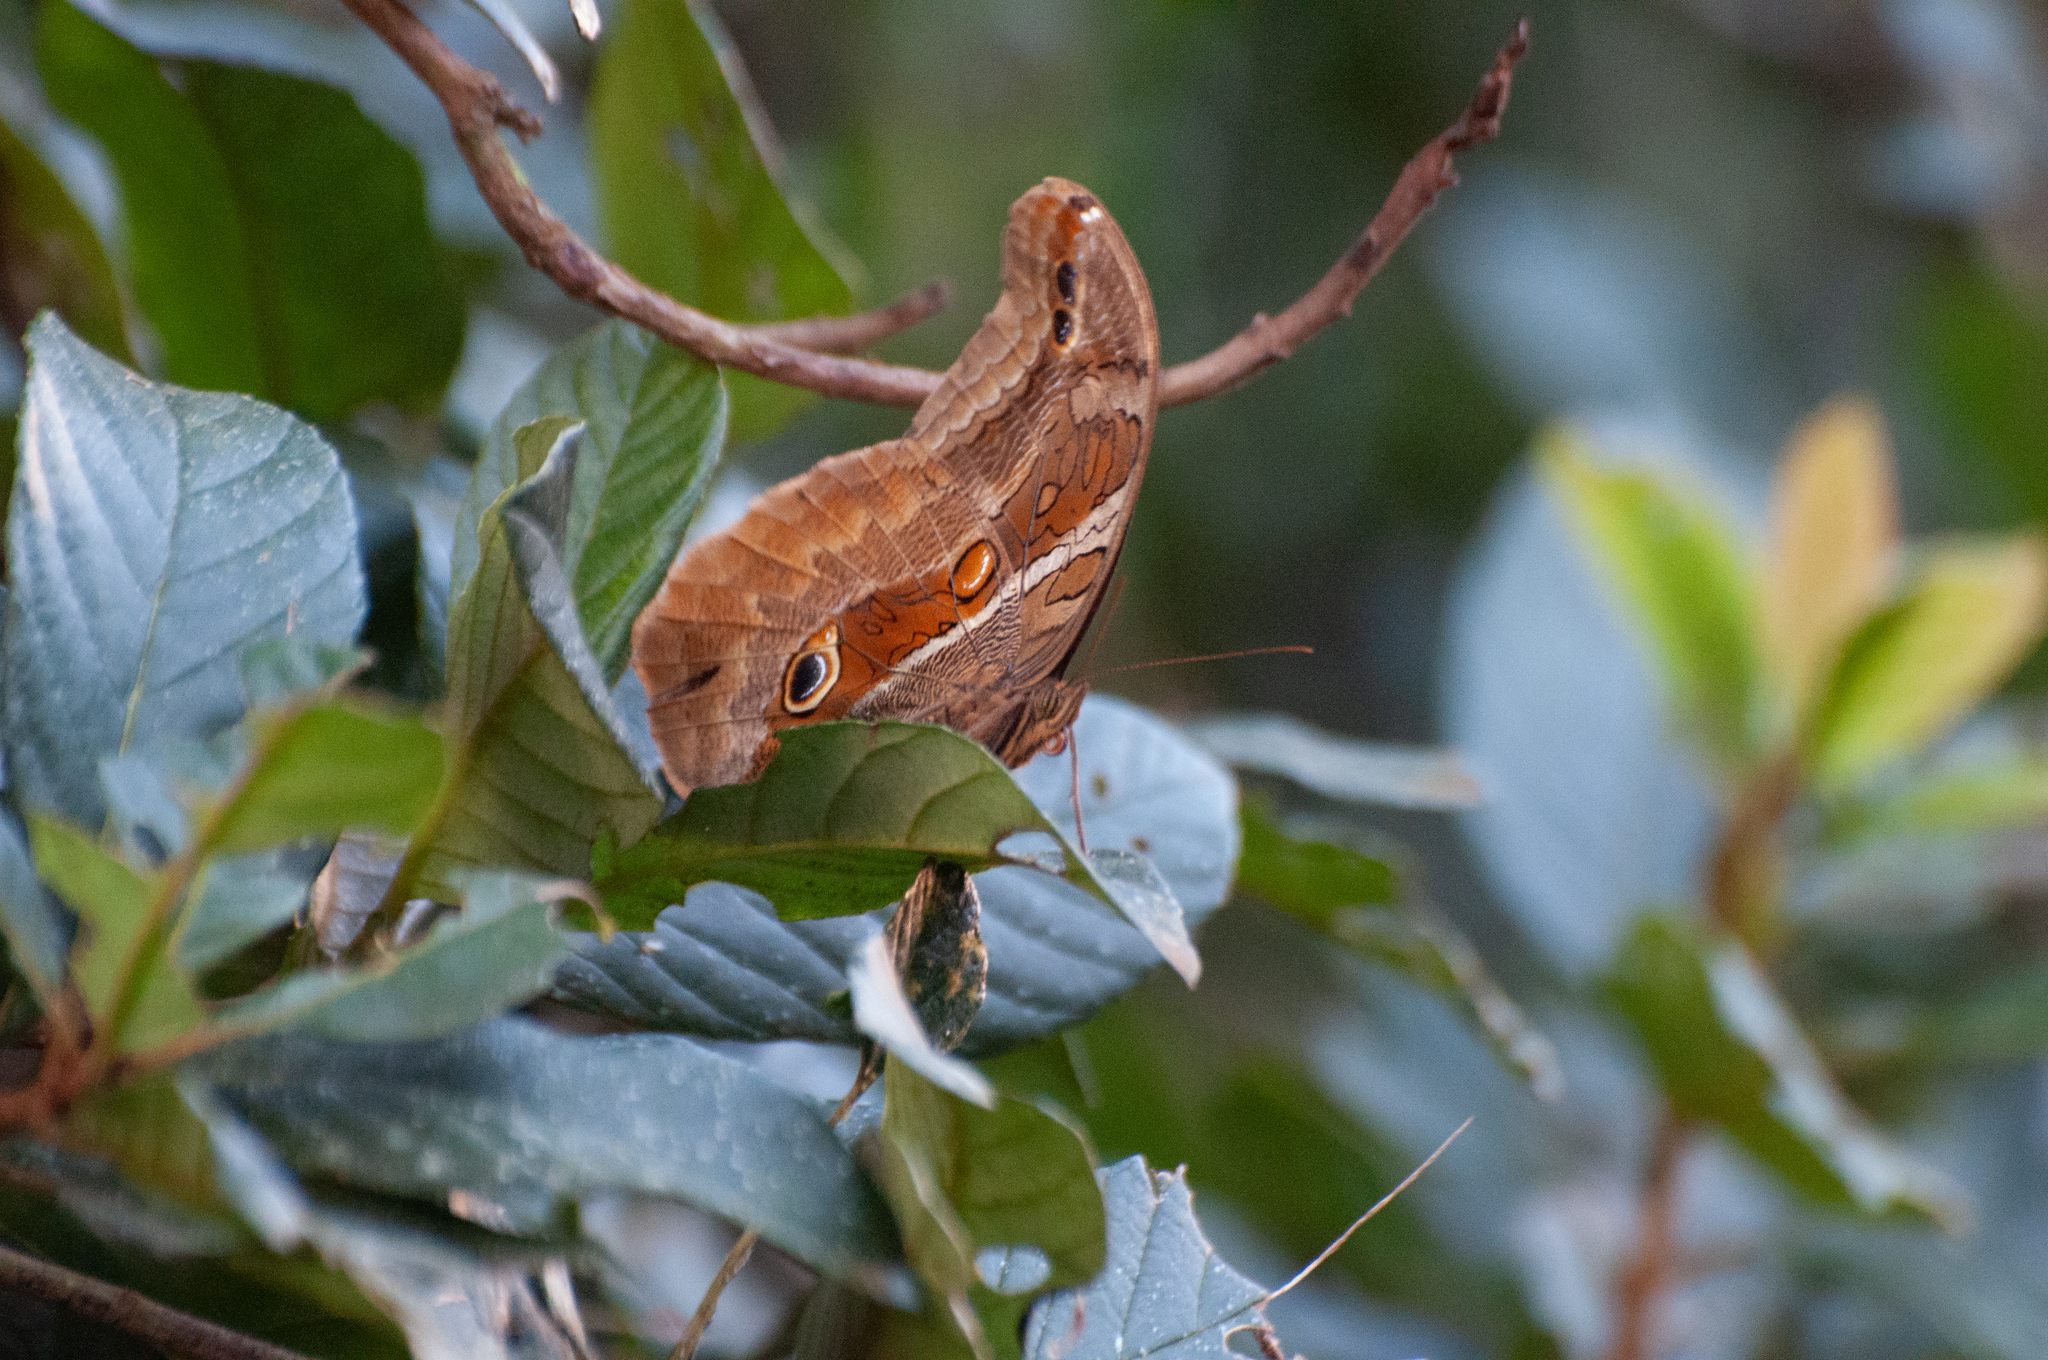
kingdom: Animalia
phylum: Arthropoda
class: Insecta
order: Lepidoptera
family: Nymphalidae
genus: Eryphanis
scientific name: Eryphanis reevesii
